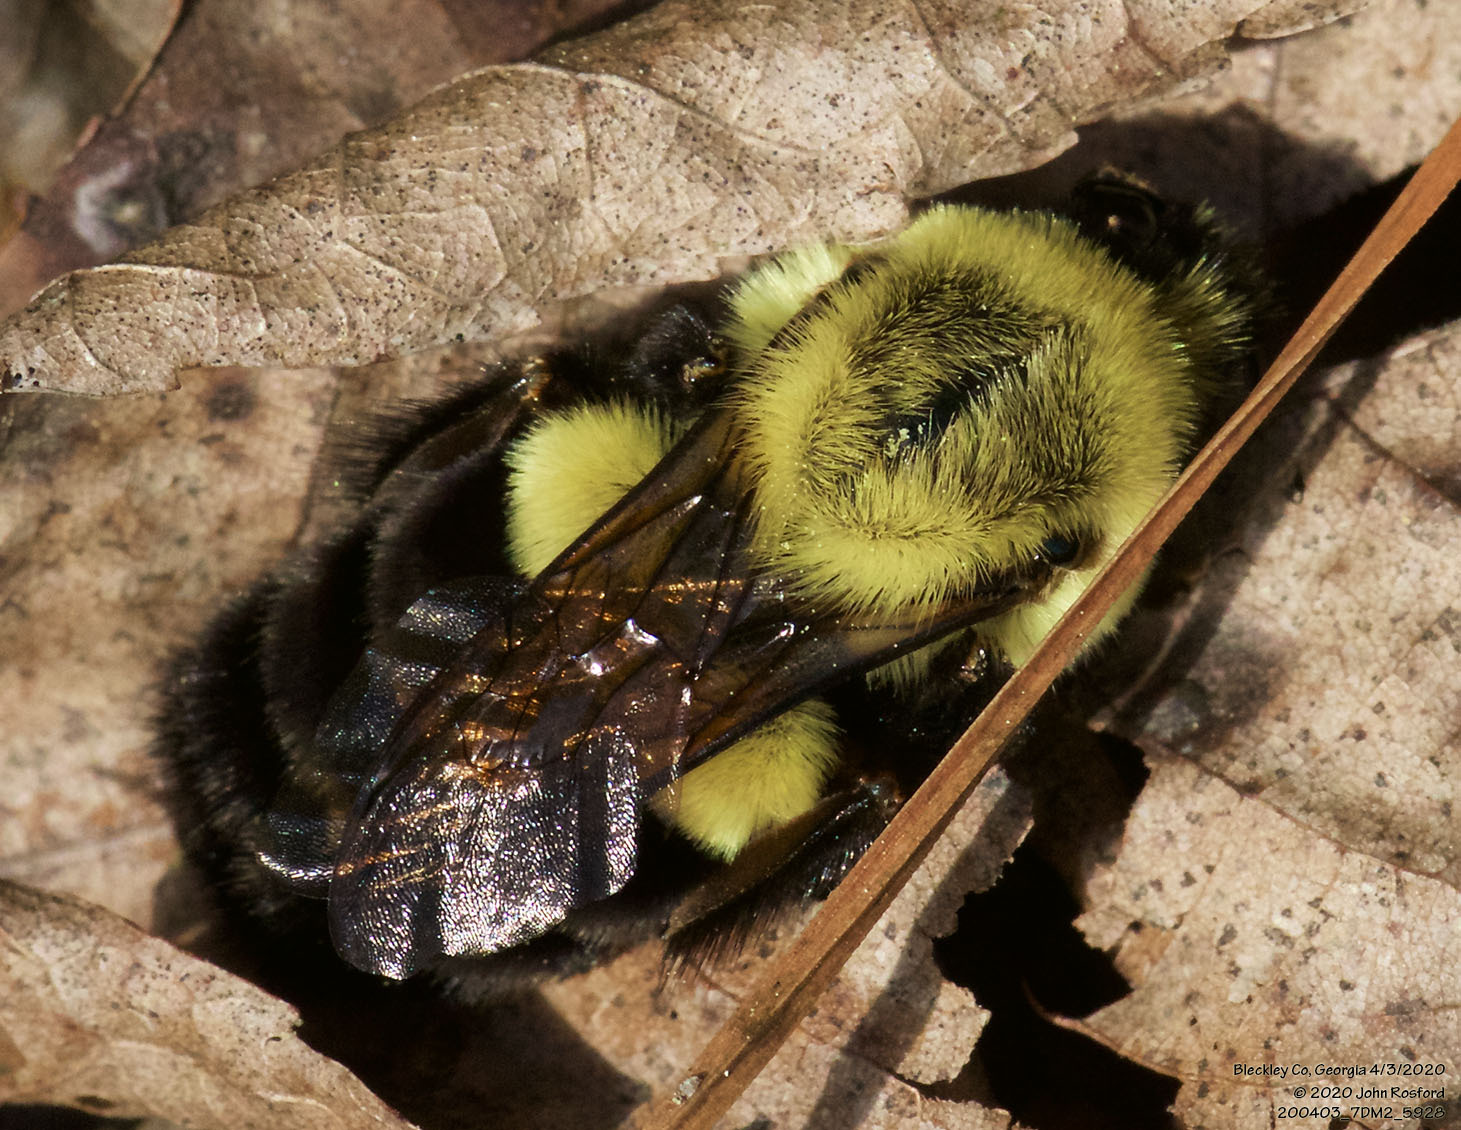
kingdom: Animalia
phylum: Arthropoda
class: Insecta
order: Hymenoptera
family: Apidae
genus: Bombus
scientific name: Bombus impatiens
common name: Common eastern bumble bee
